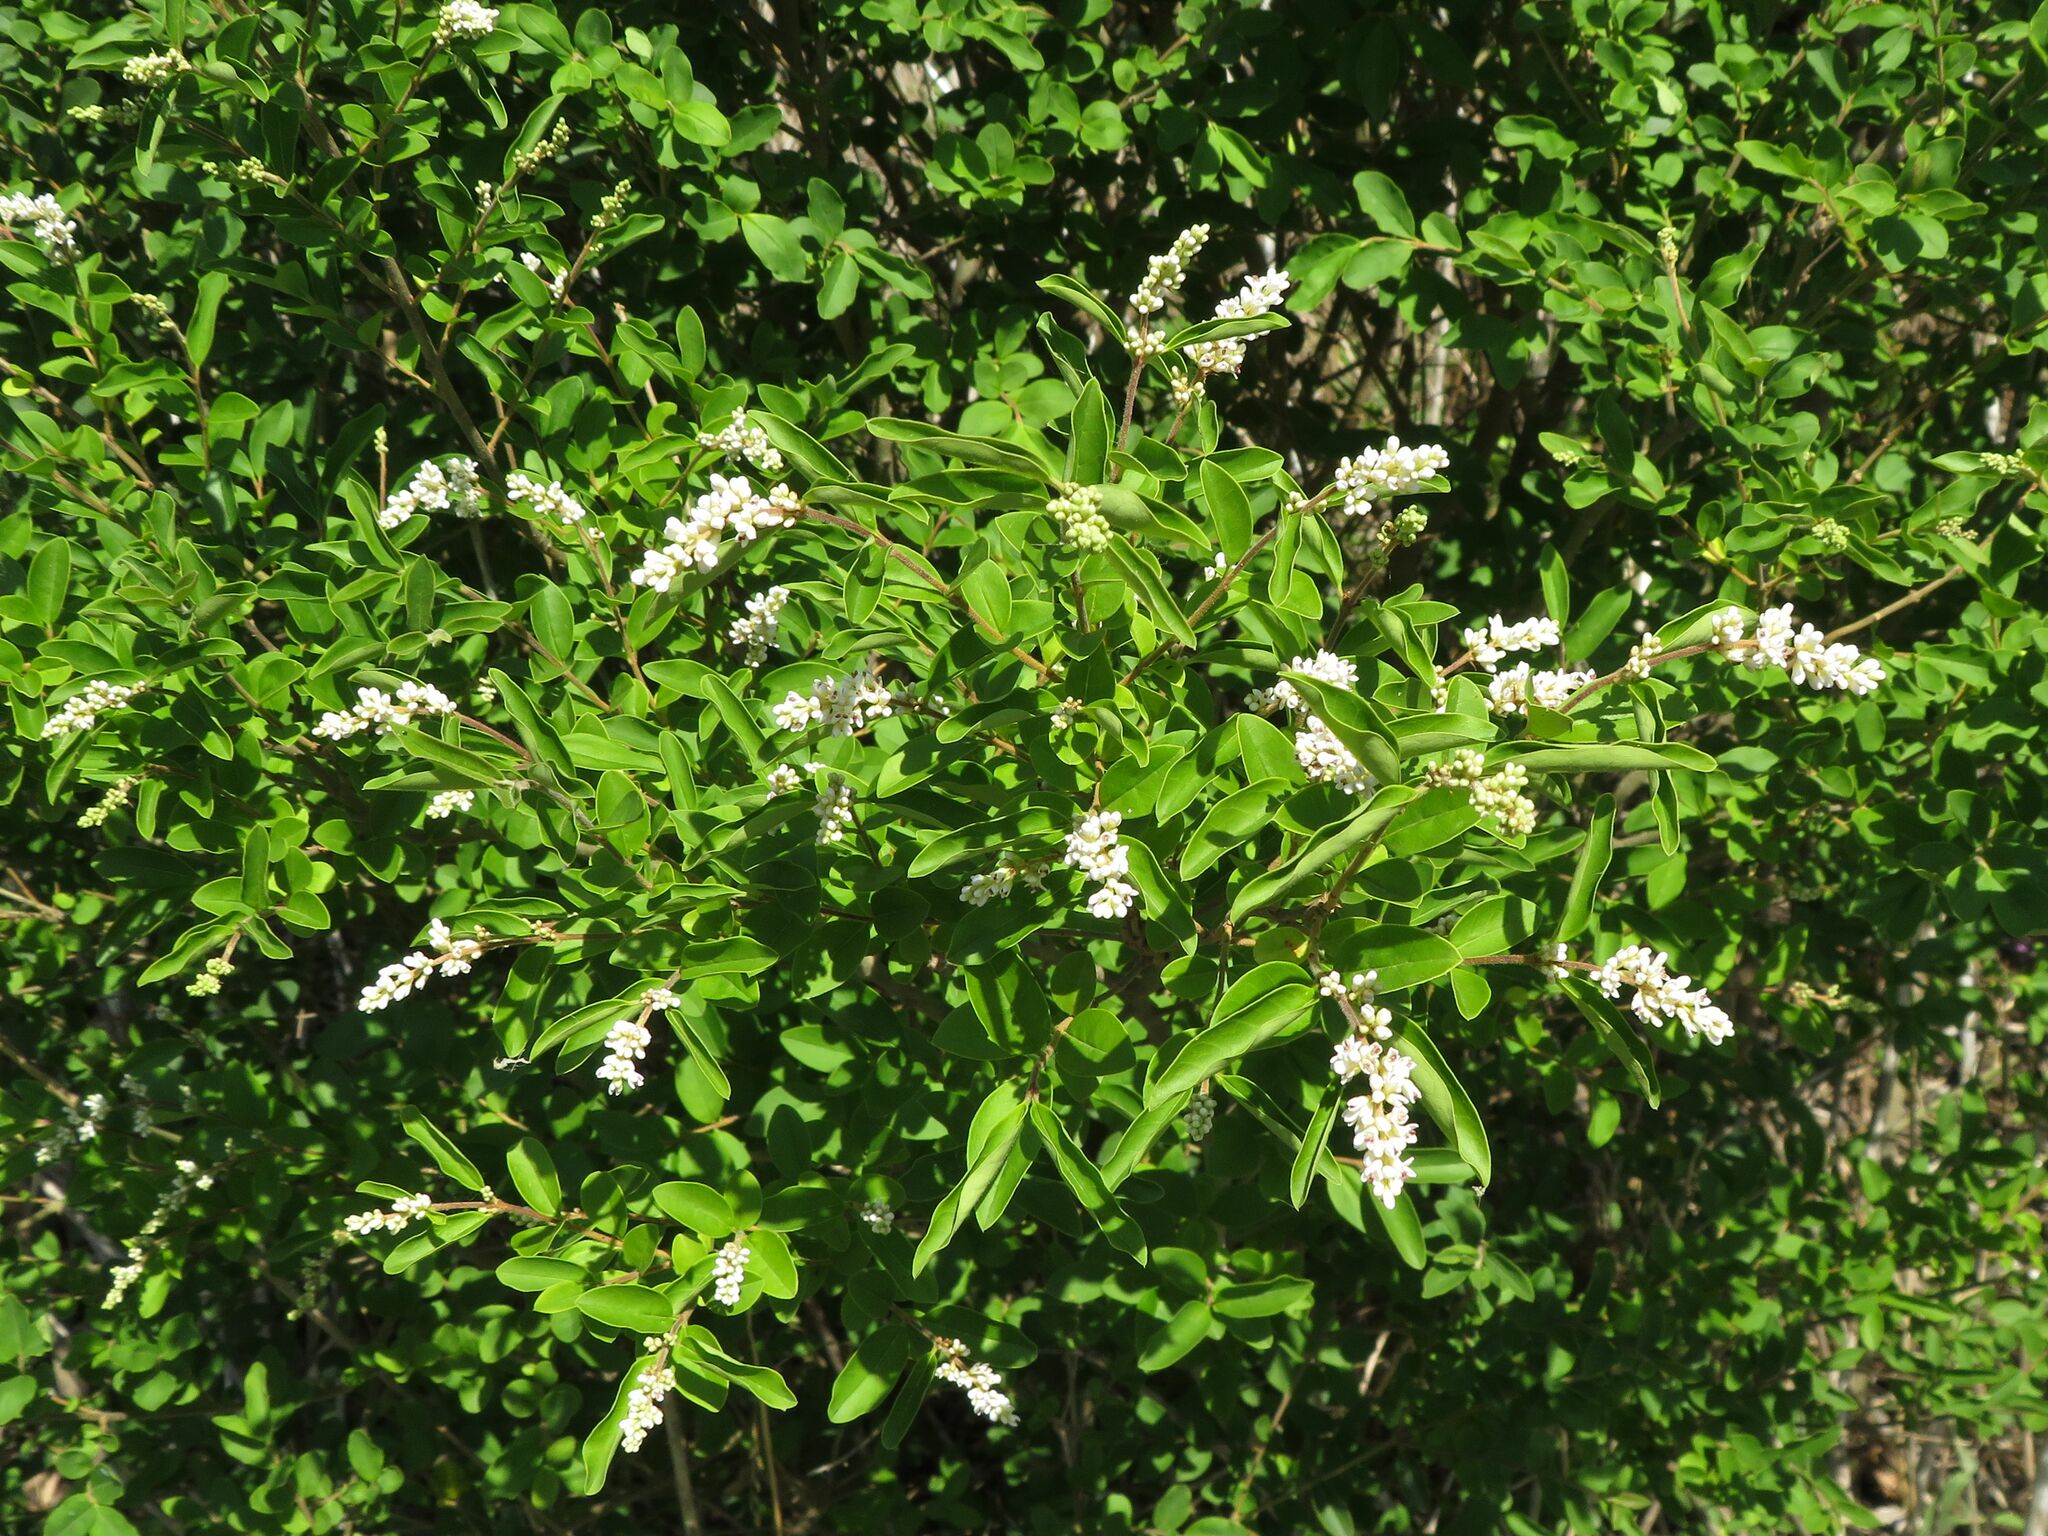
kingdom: Plantae
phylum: Tracheophyta
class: Magnoliopsida
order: Lamiales
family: Oleaceae
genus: Ligustrum
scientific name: Ligustrum sinense
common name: Chinese privet
